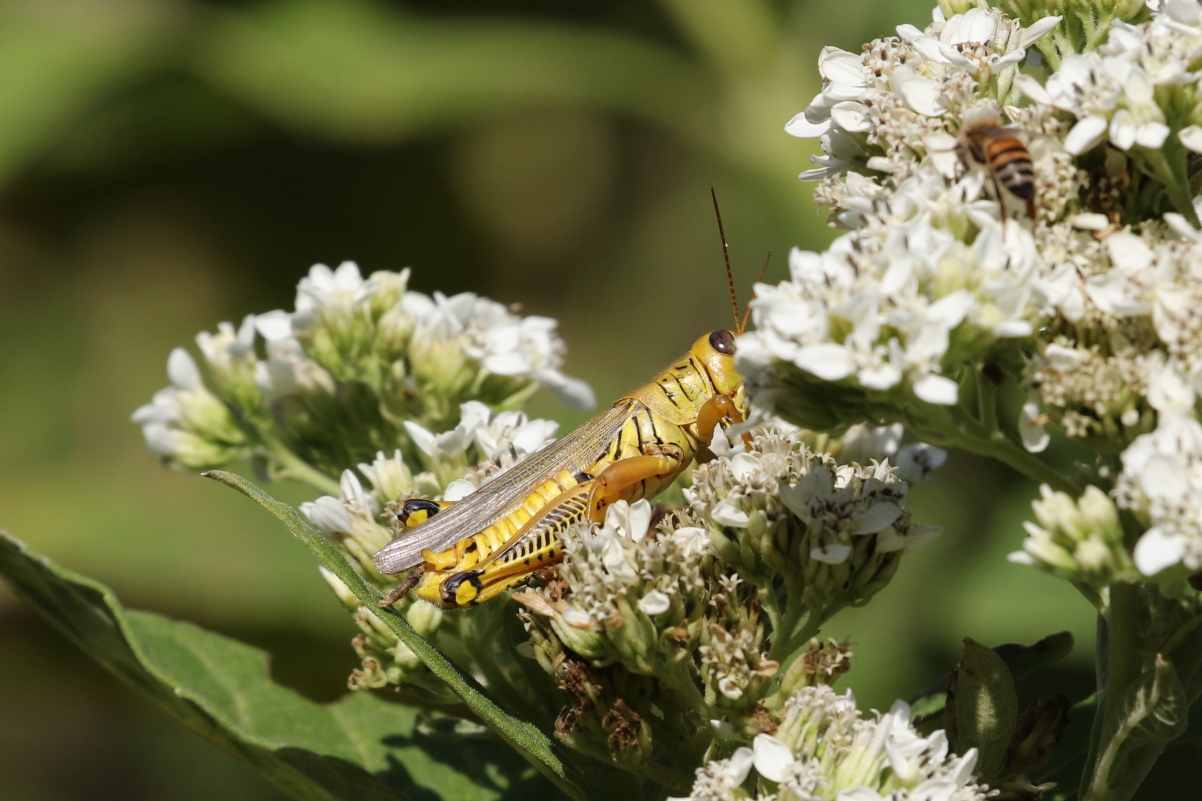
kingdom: Animalia
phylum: Arthropoda
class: Insecta
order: Orthoptera
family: Acrididae
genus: Melanoplus
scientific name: Melanoplus differentialis
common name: Differential grasshopper
